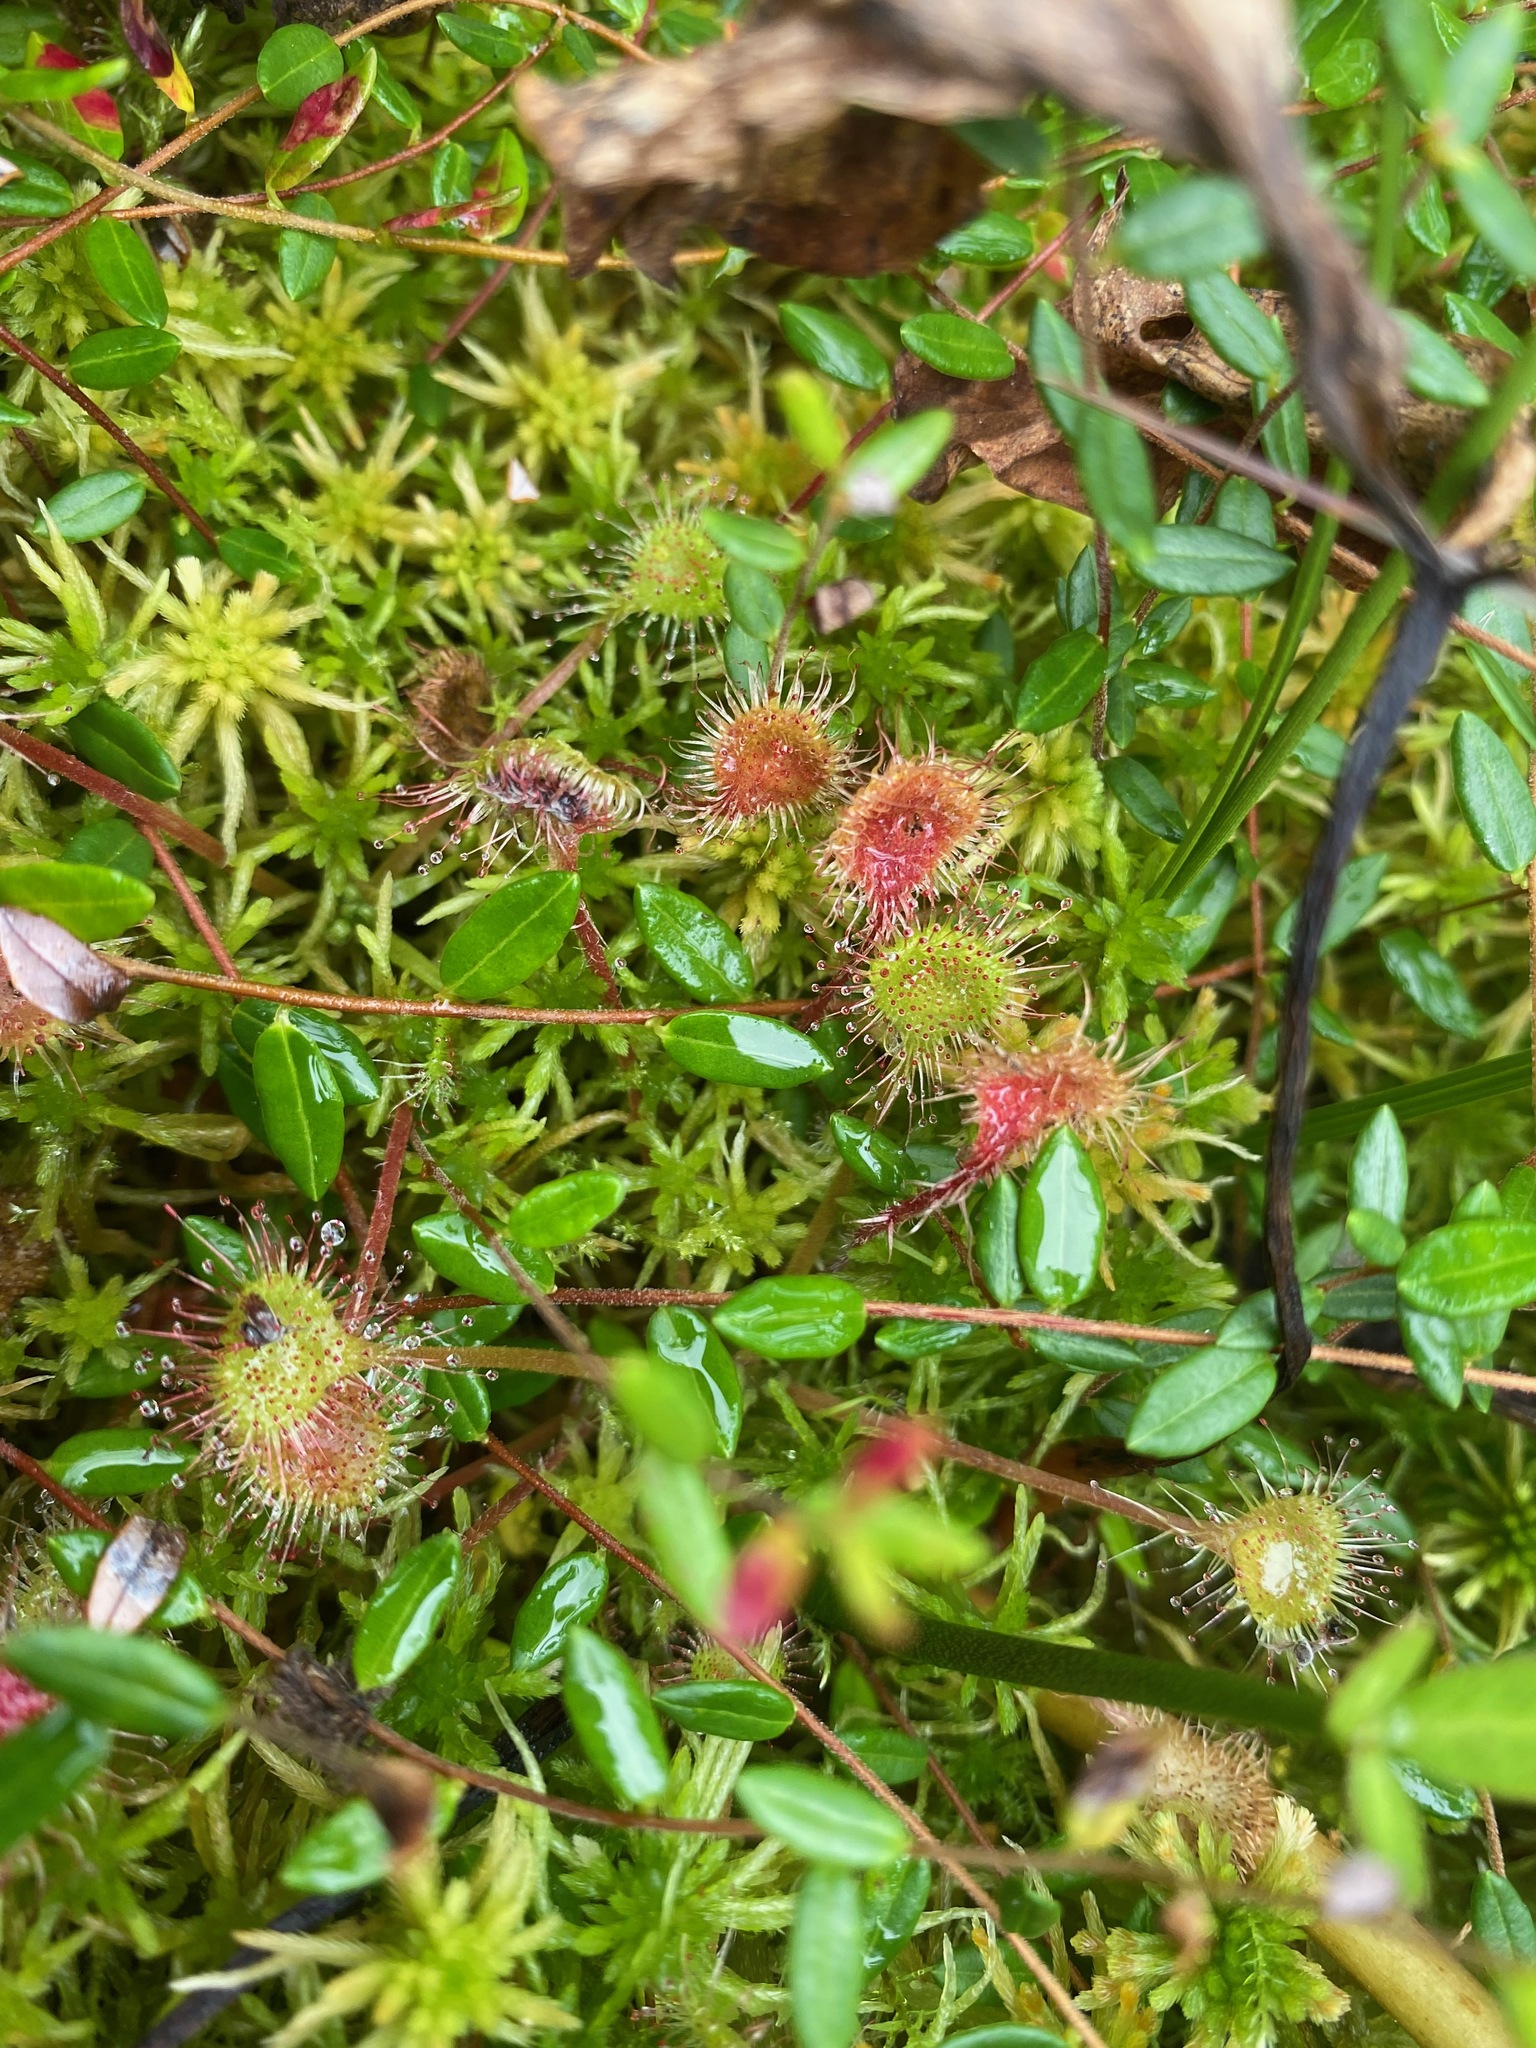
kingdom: Plantae
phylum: Tracheophyta
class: Magnoliopsida
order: Caryophyllales
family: Droseraceae
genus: Drosera
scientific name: Drosera rotundifolia
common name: Round-leaved sundew
